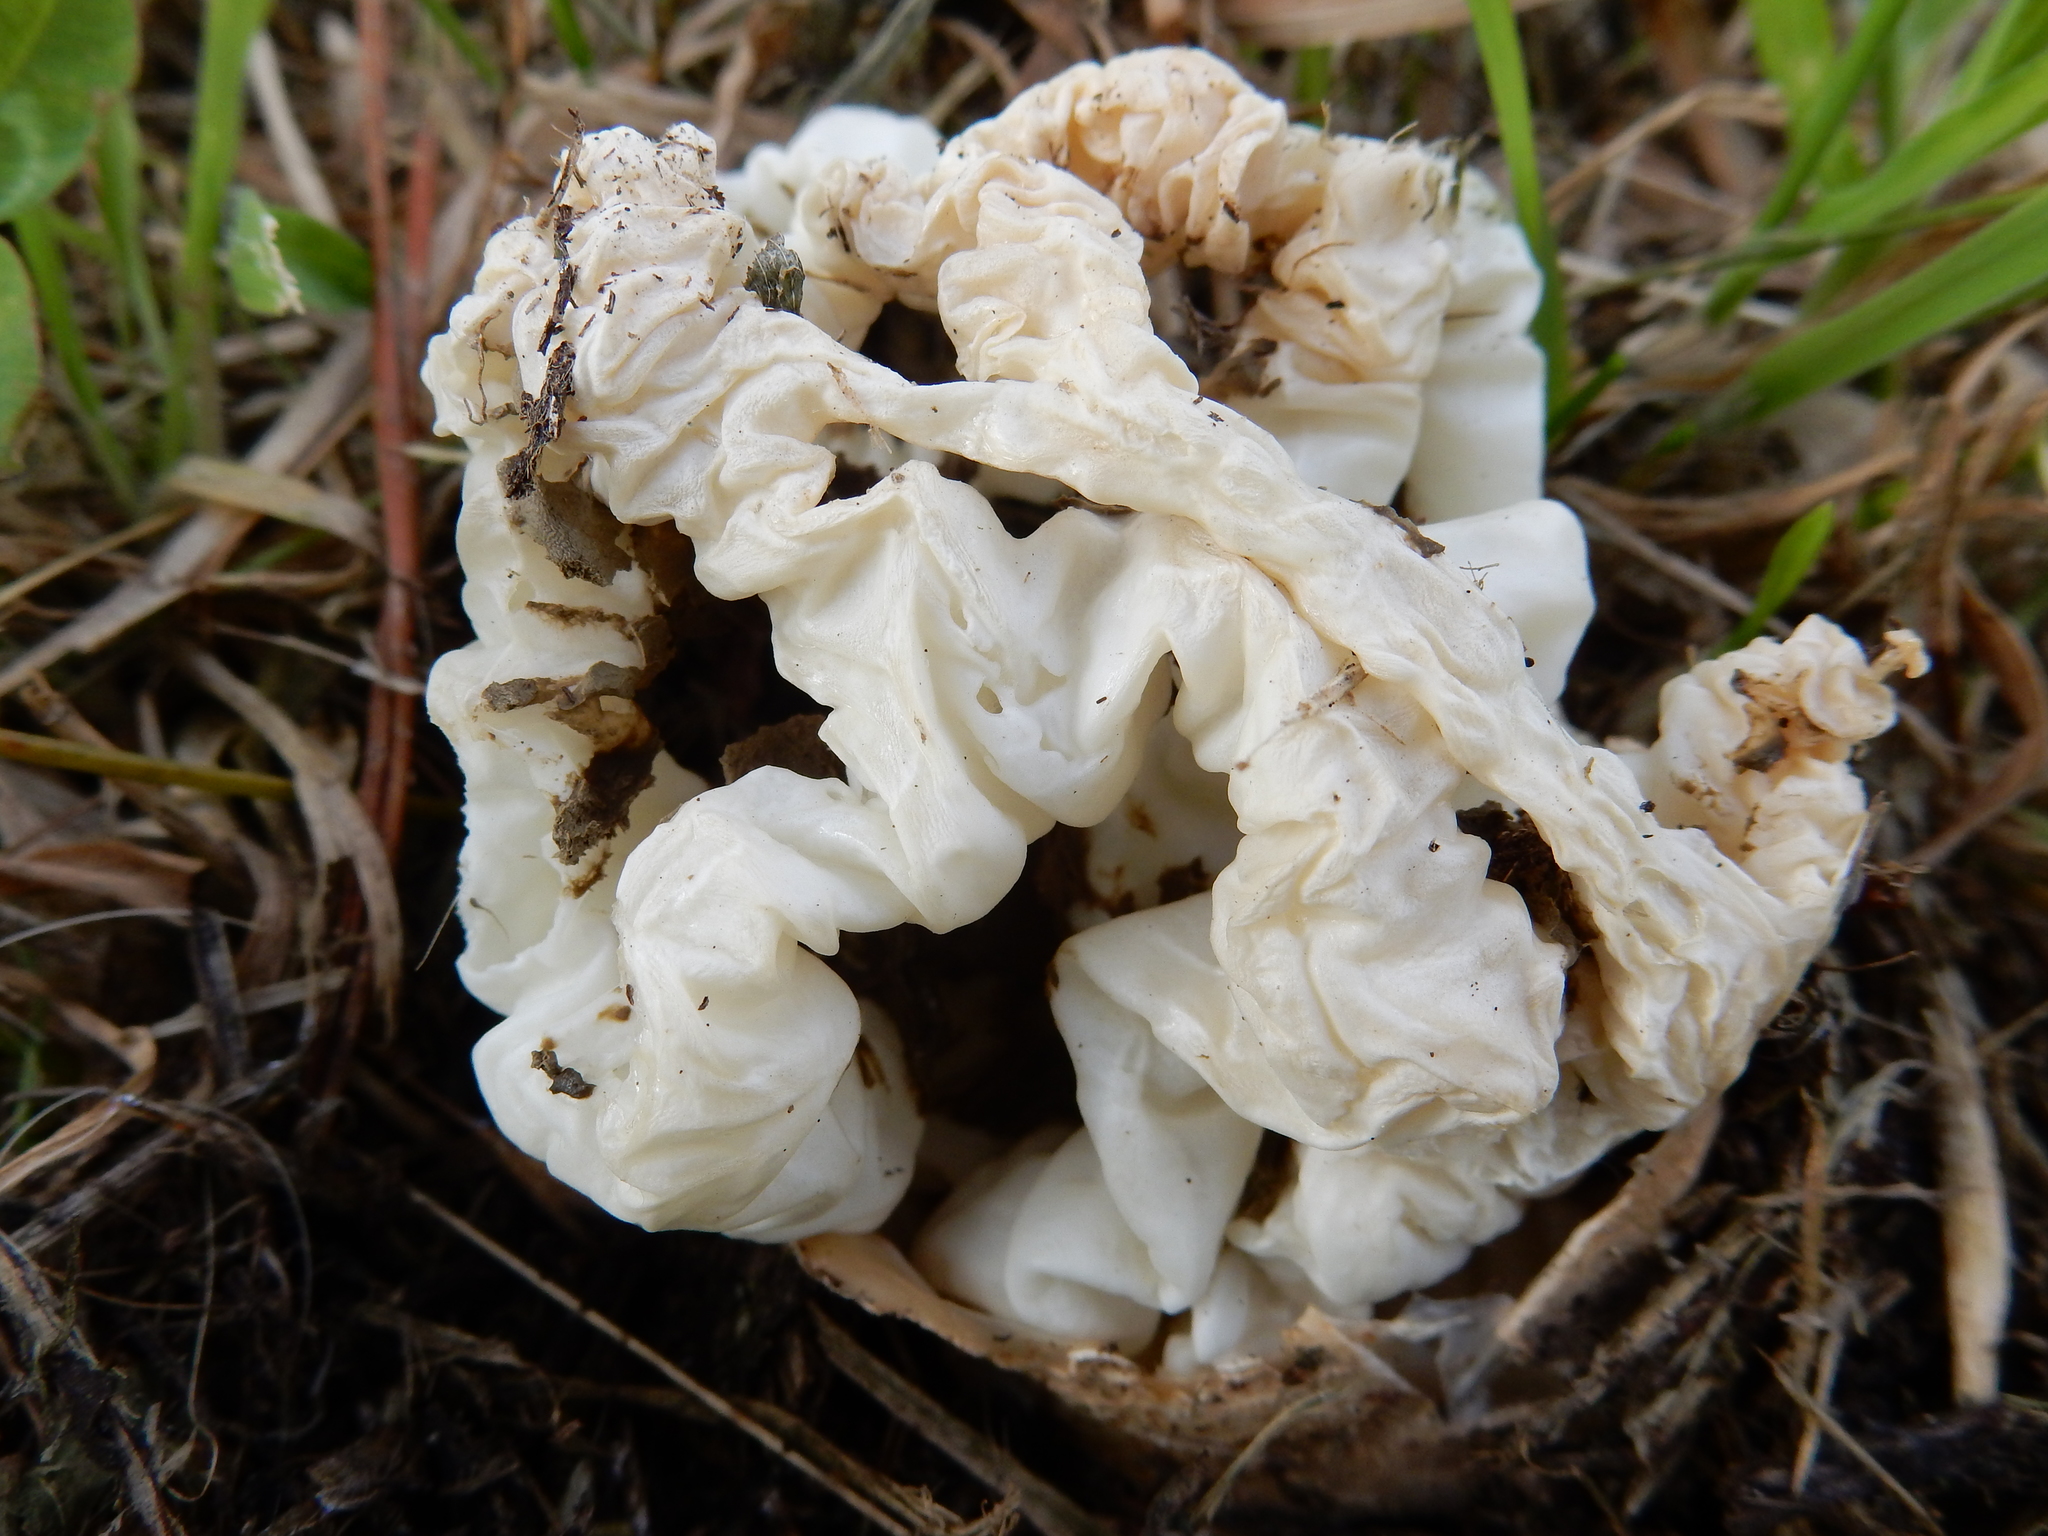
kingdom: Fungi
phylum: Basidiomycota
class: Agaricomycetes
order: Phallales
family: Phallaceae
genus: Ileodictyon
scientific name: Ileodictyon cibarium
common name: Basket fungus
